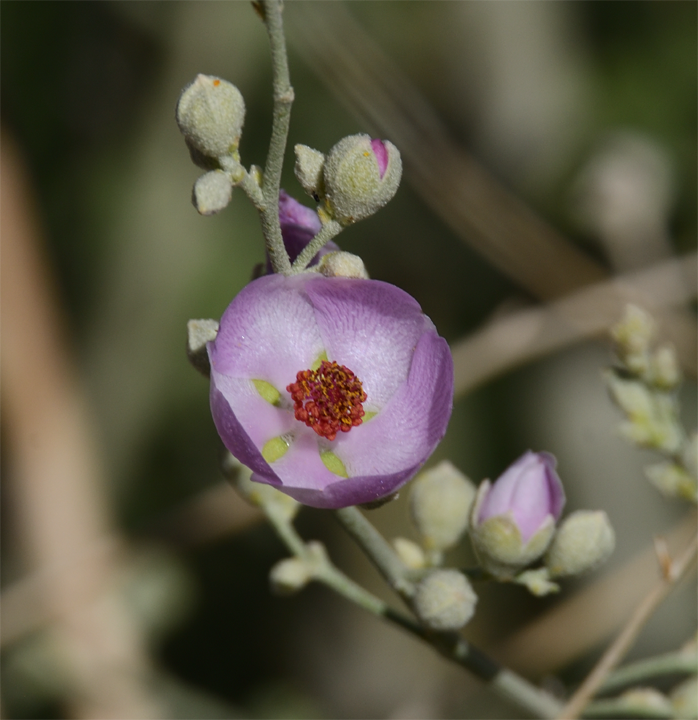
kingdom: Plantae
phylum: Tracheophyta
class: Magnoliopsida
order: Malvales
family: Malvaceae
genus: Malacothamnus
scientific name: Malacothamnus fasciculatus
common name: Sant cruz island bush-mallow
